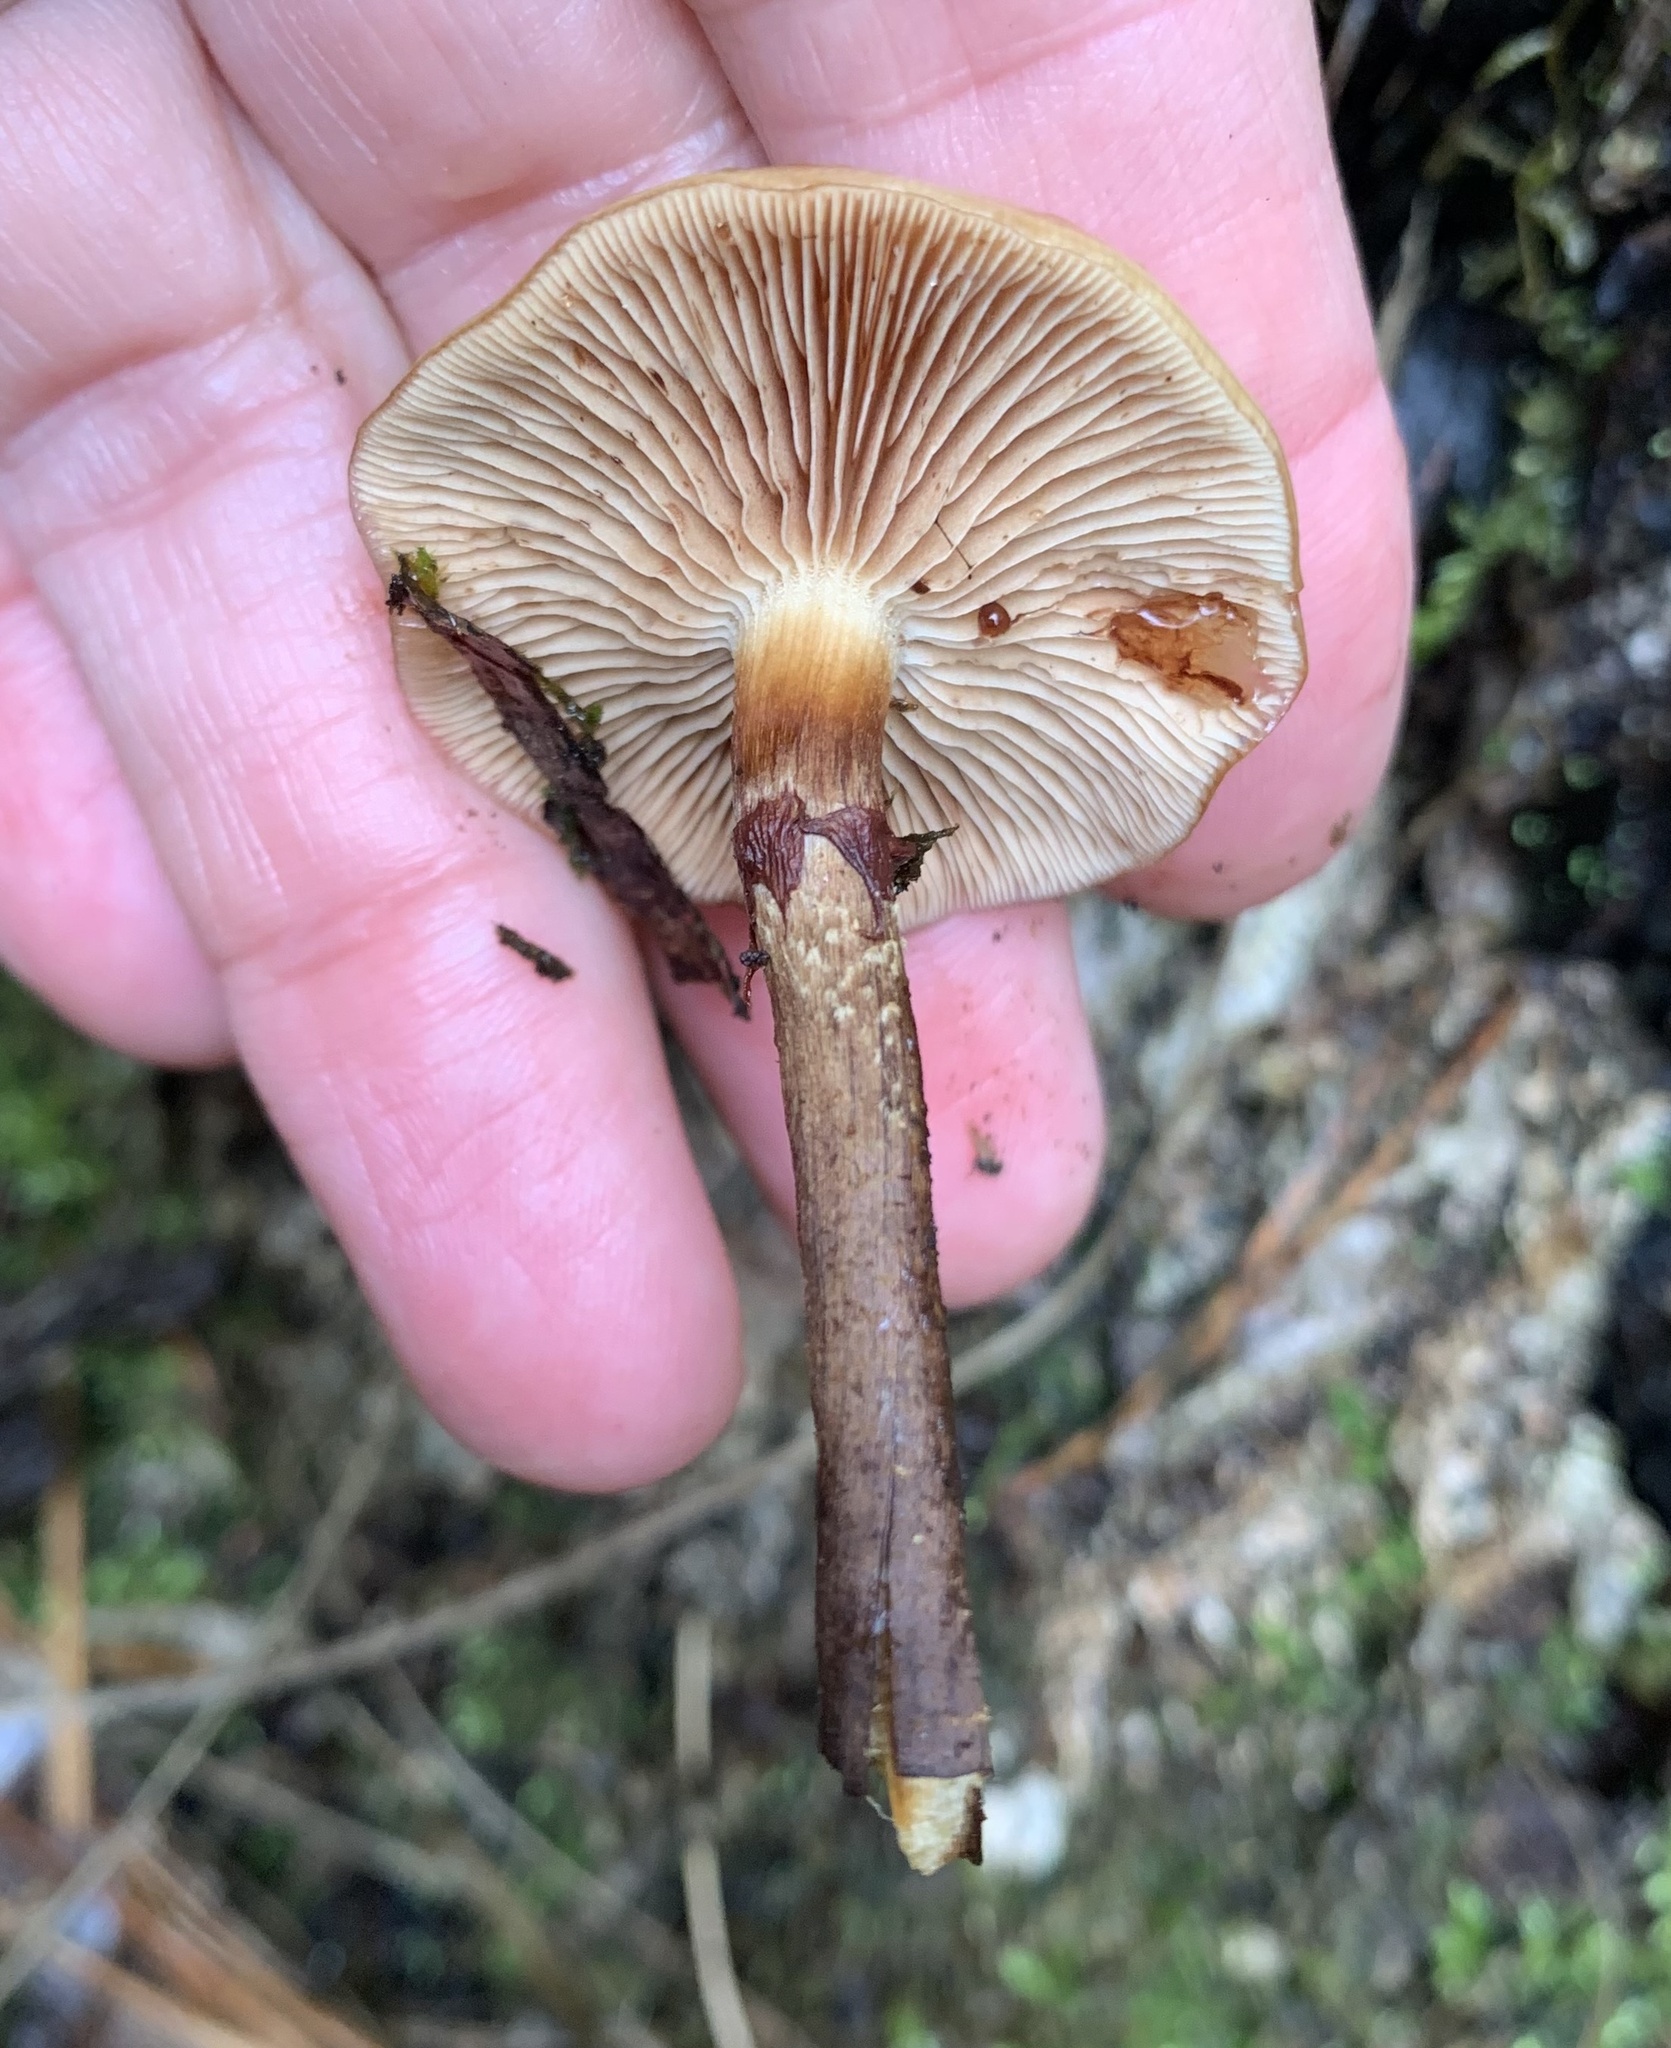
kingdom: Fungi
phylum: Basidiomycota
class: Agaricomycetes
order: Agaricales
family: Strophariaceae
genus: Kuehneromyces
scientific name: Kuehneromyces mutabilis
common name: Sheathed woodtuft
